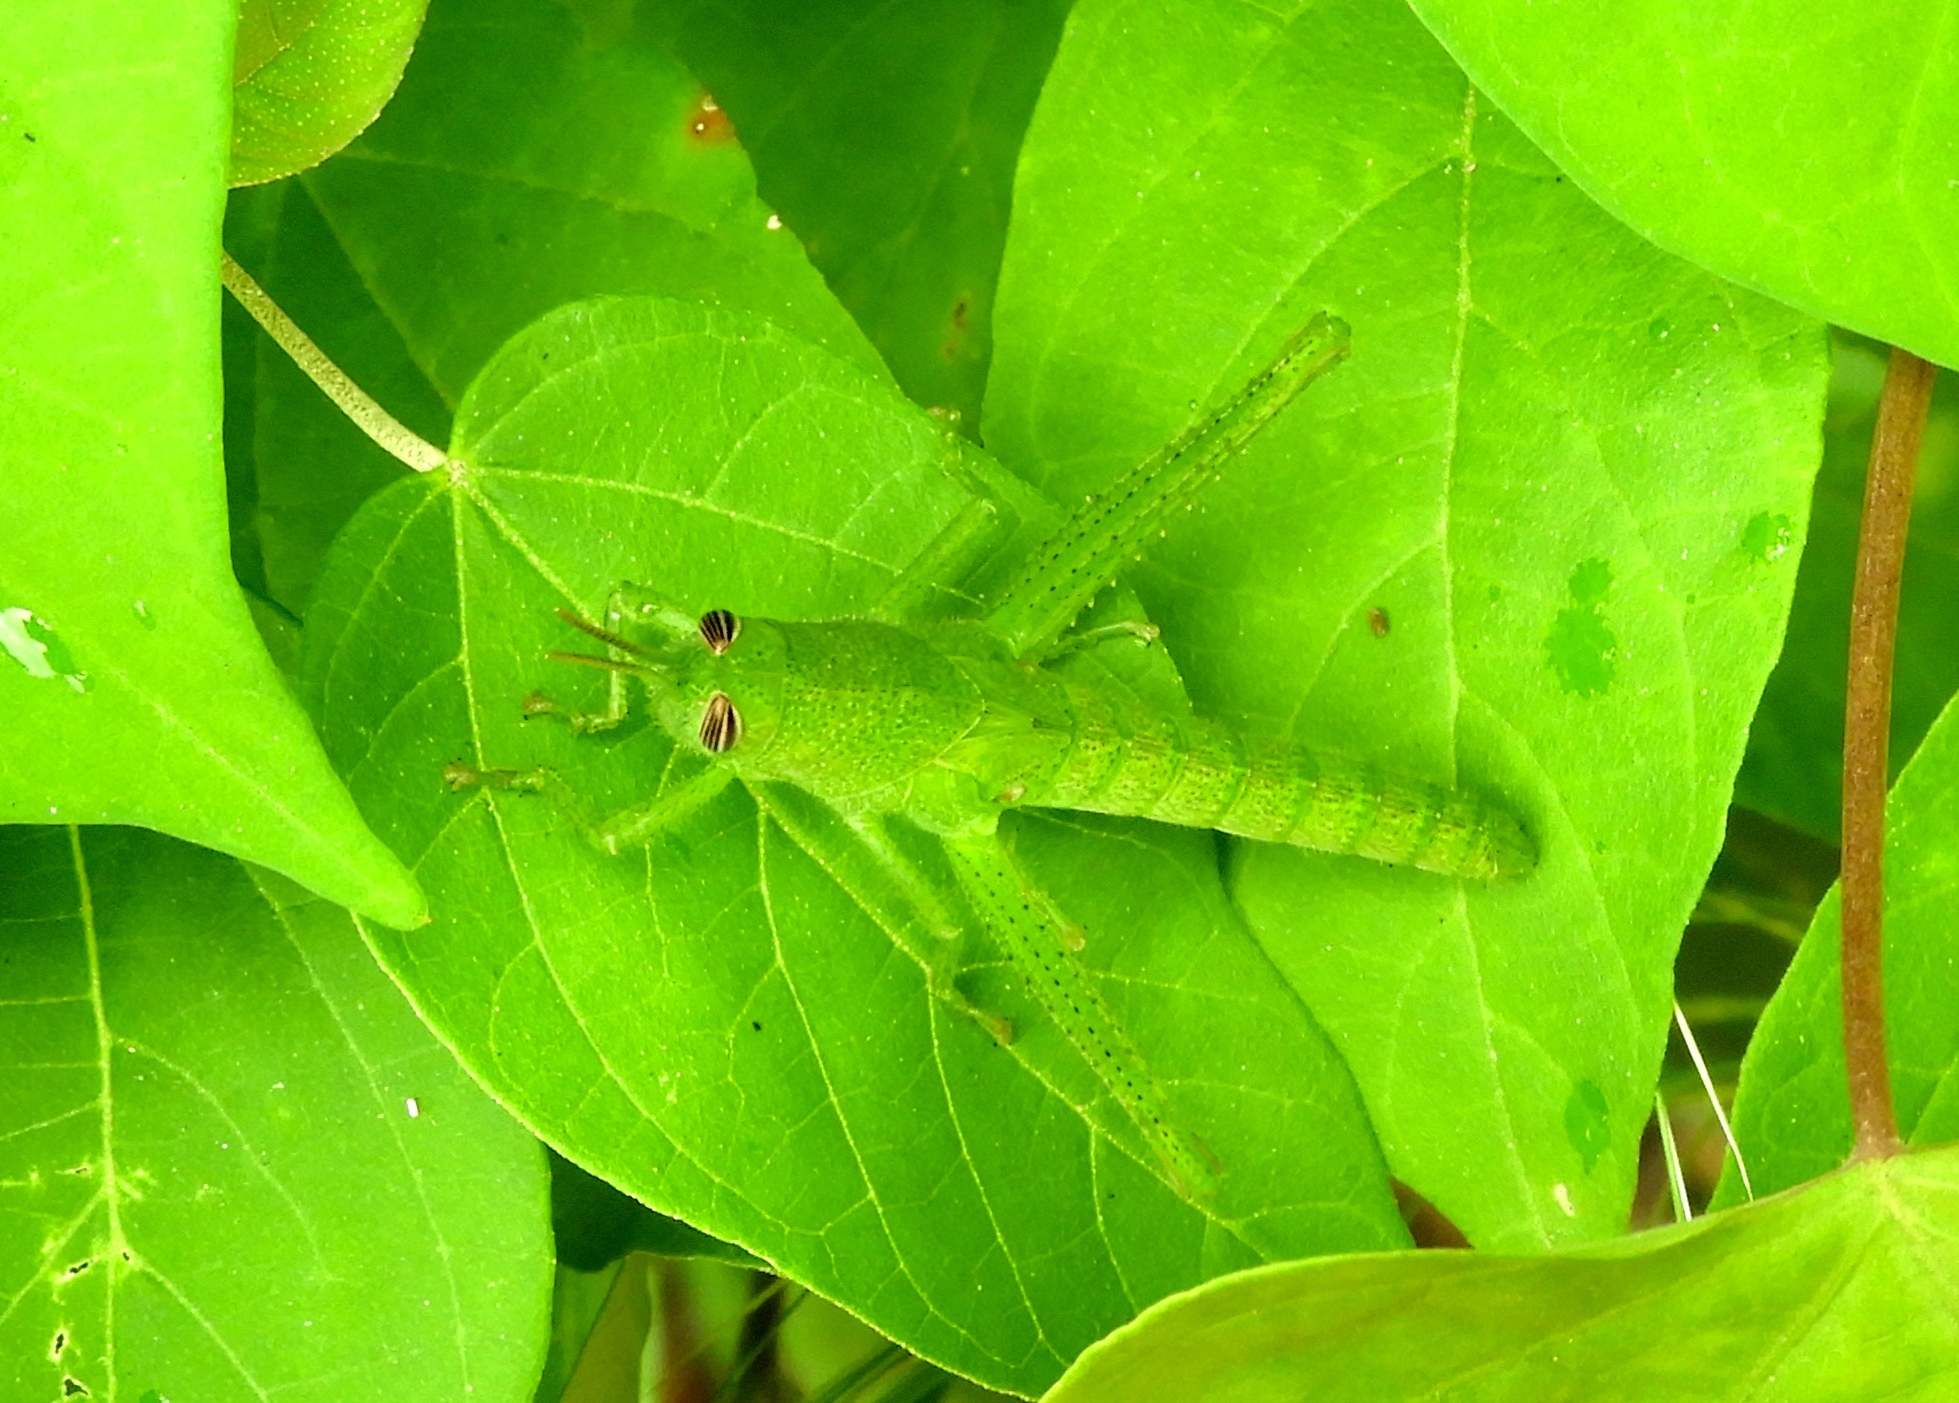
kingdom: Animalia
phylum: Arthropoda
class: Insecta
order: Orthoptera
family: Acrididae
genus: Schistocerca
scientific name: Schistocerca camerata
